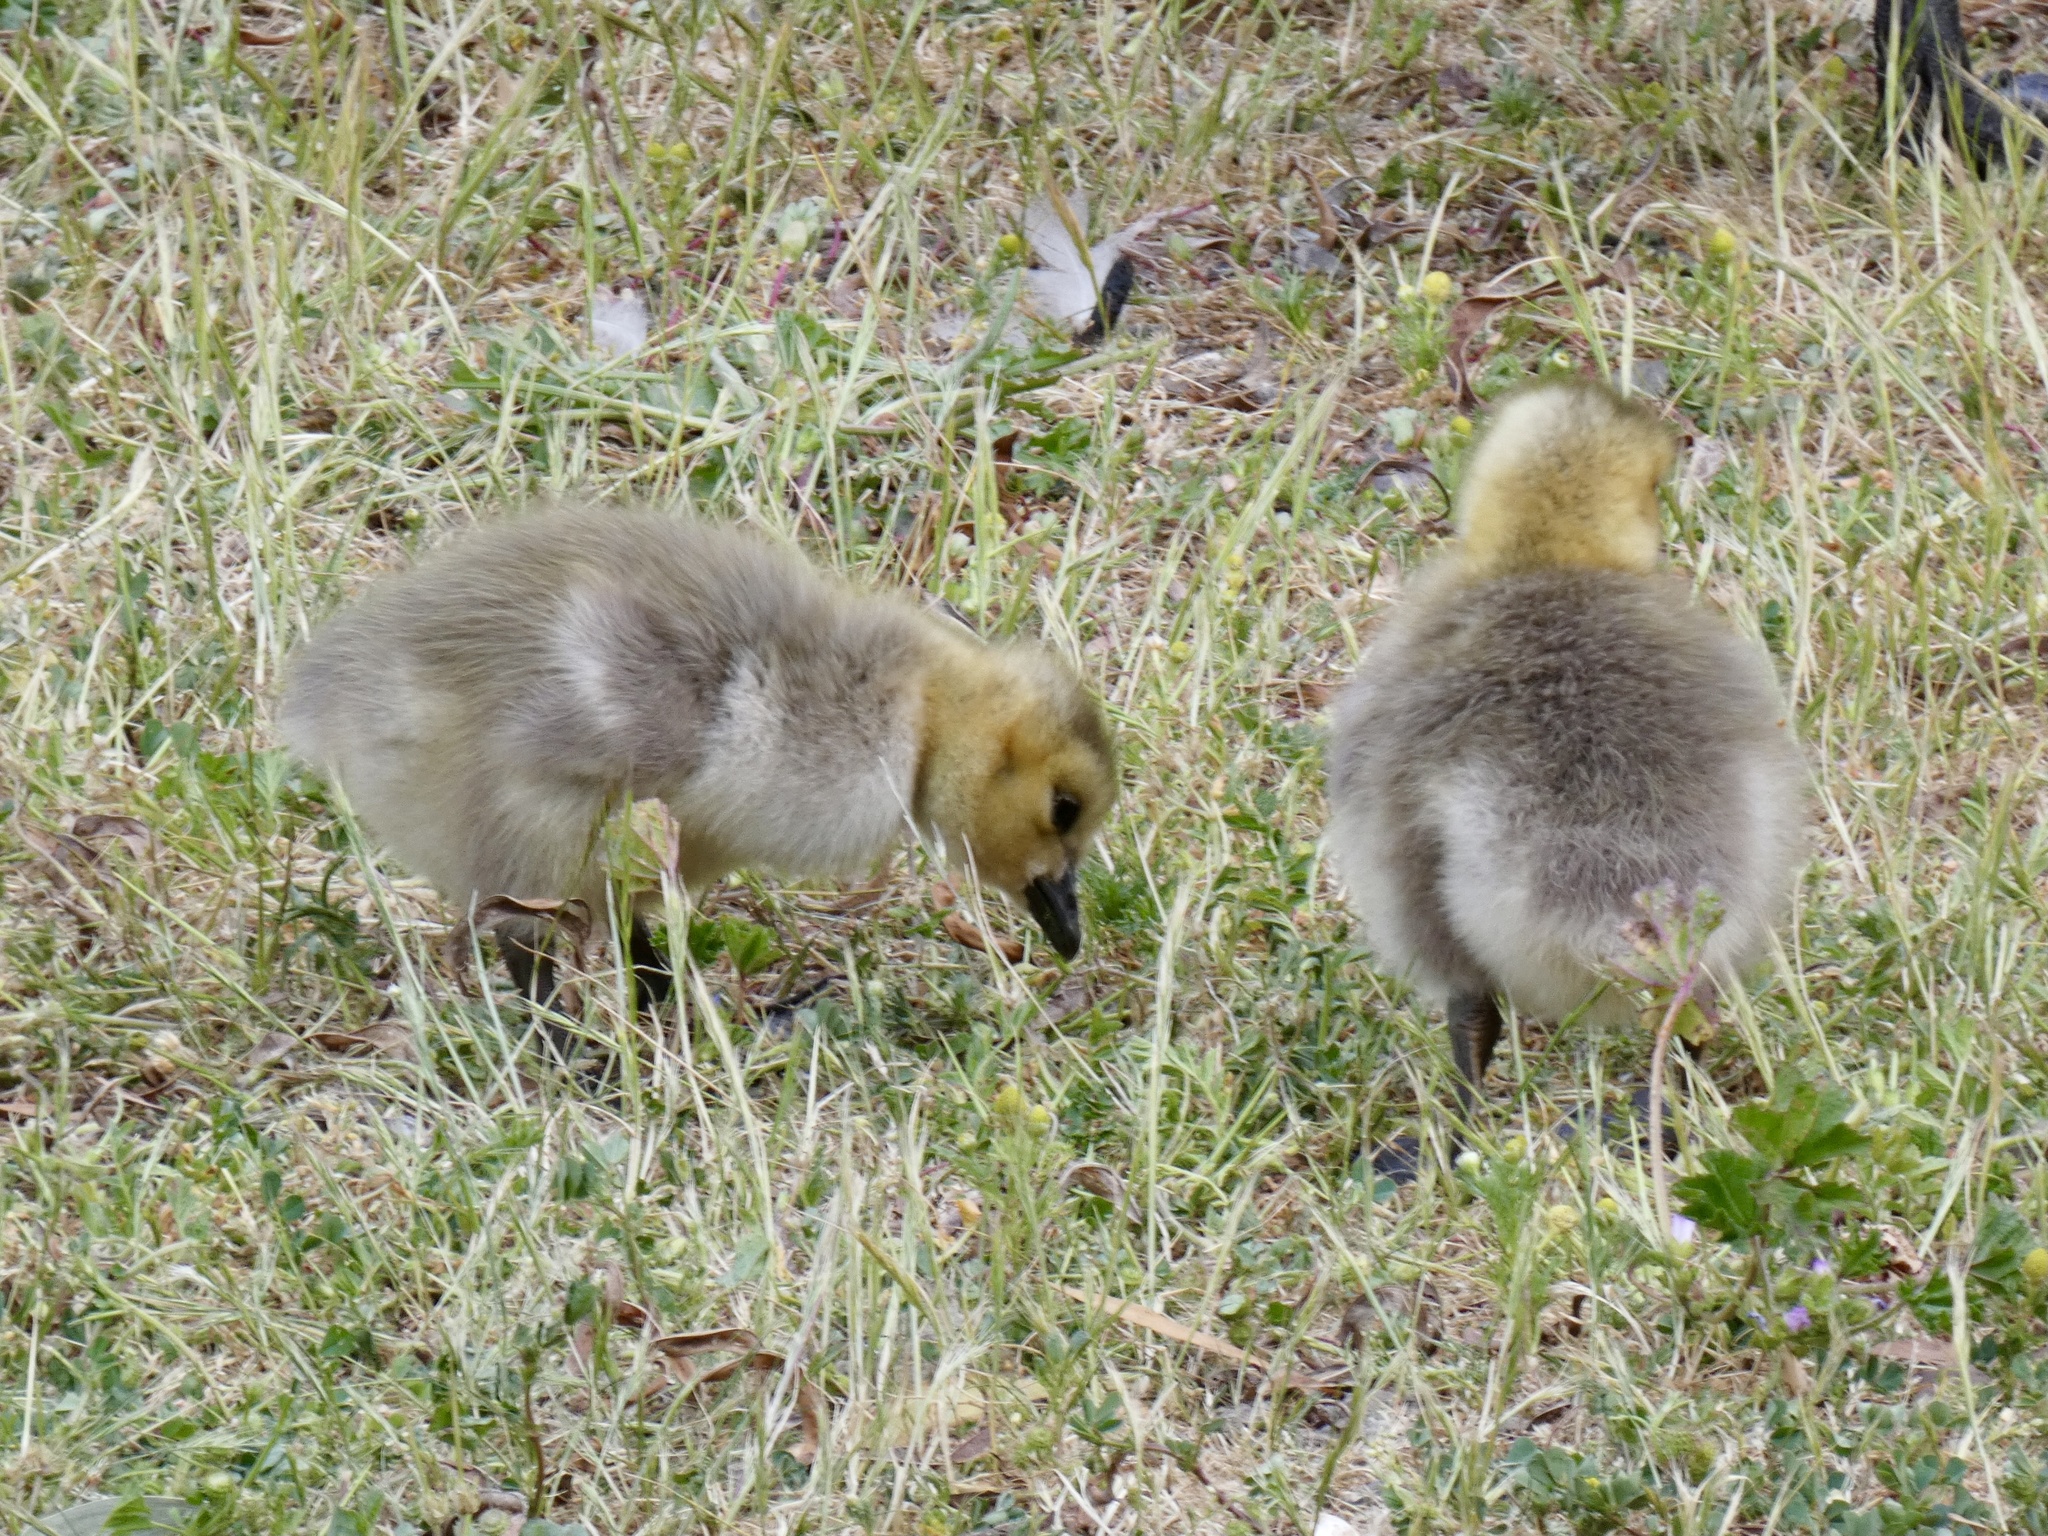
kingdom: Animalia
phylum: Chordata
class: Aves
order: Anseriformes
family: Anatidae
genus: Branta
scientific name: Branta canadensis
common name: Canada goose
